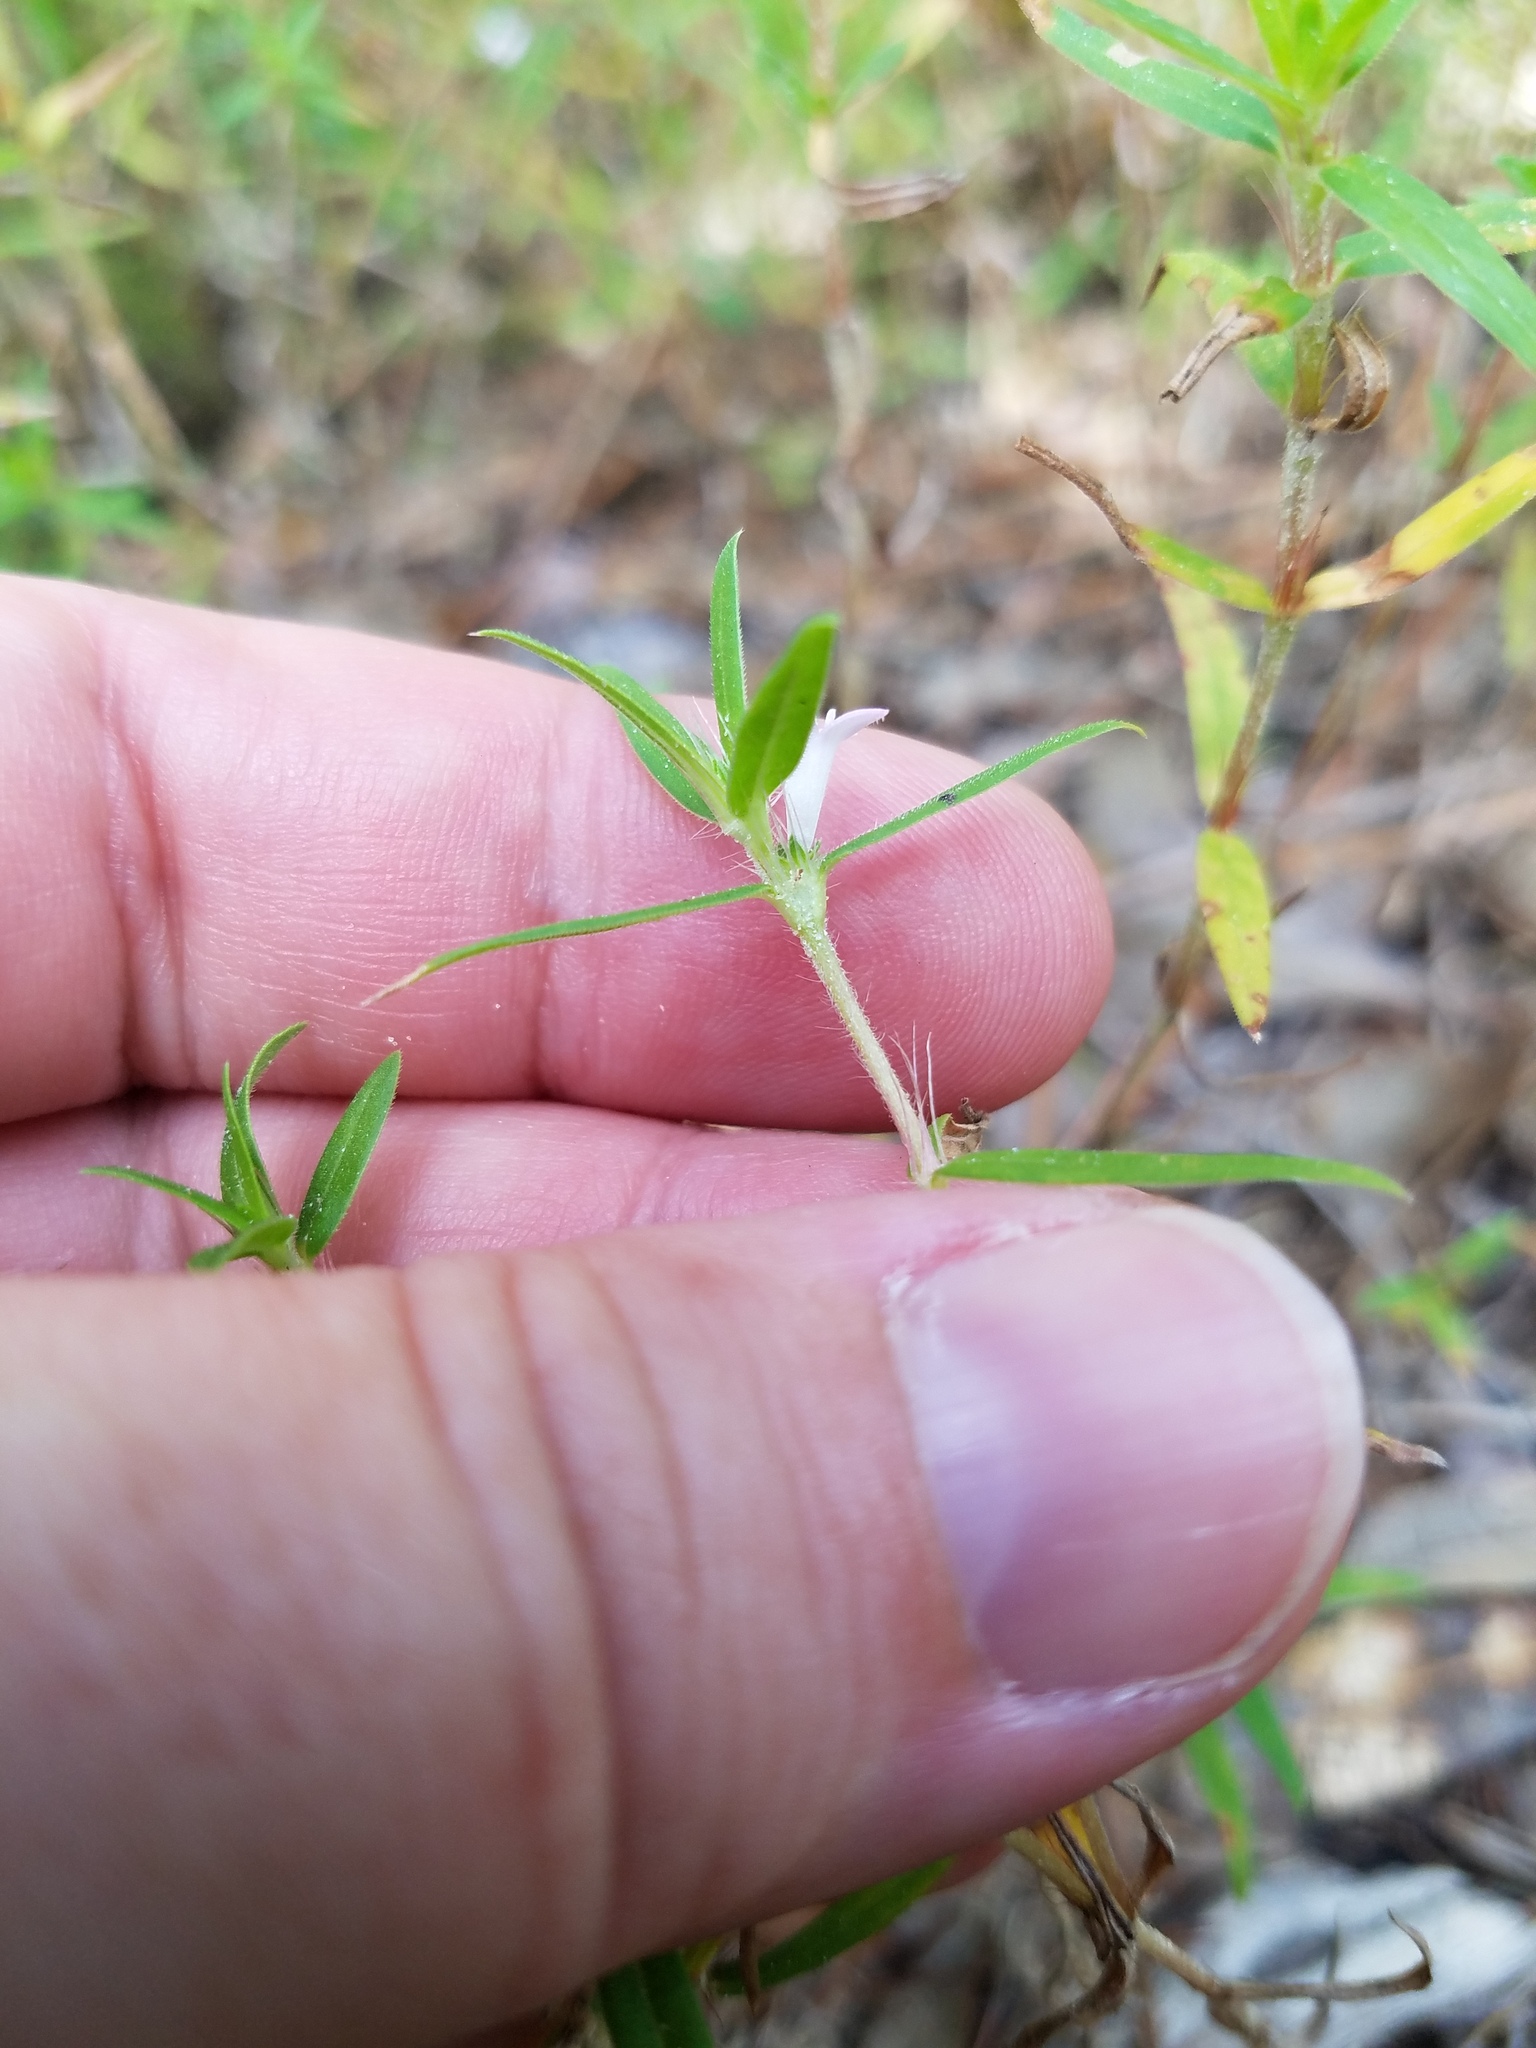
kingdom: Plantae
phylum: Tracheophyta
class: Magnoliopsida
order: Gentianales
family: Rubiaceae
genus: Hexasepalum
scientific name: Hexasepalum teres
